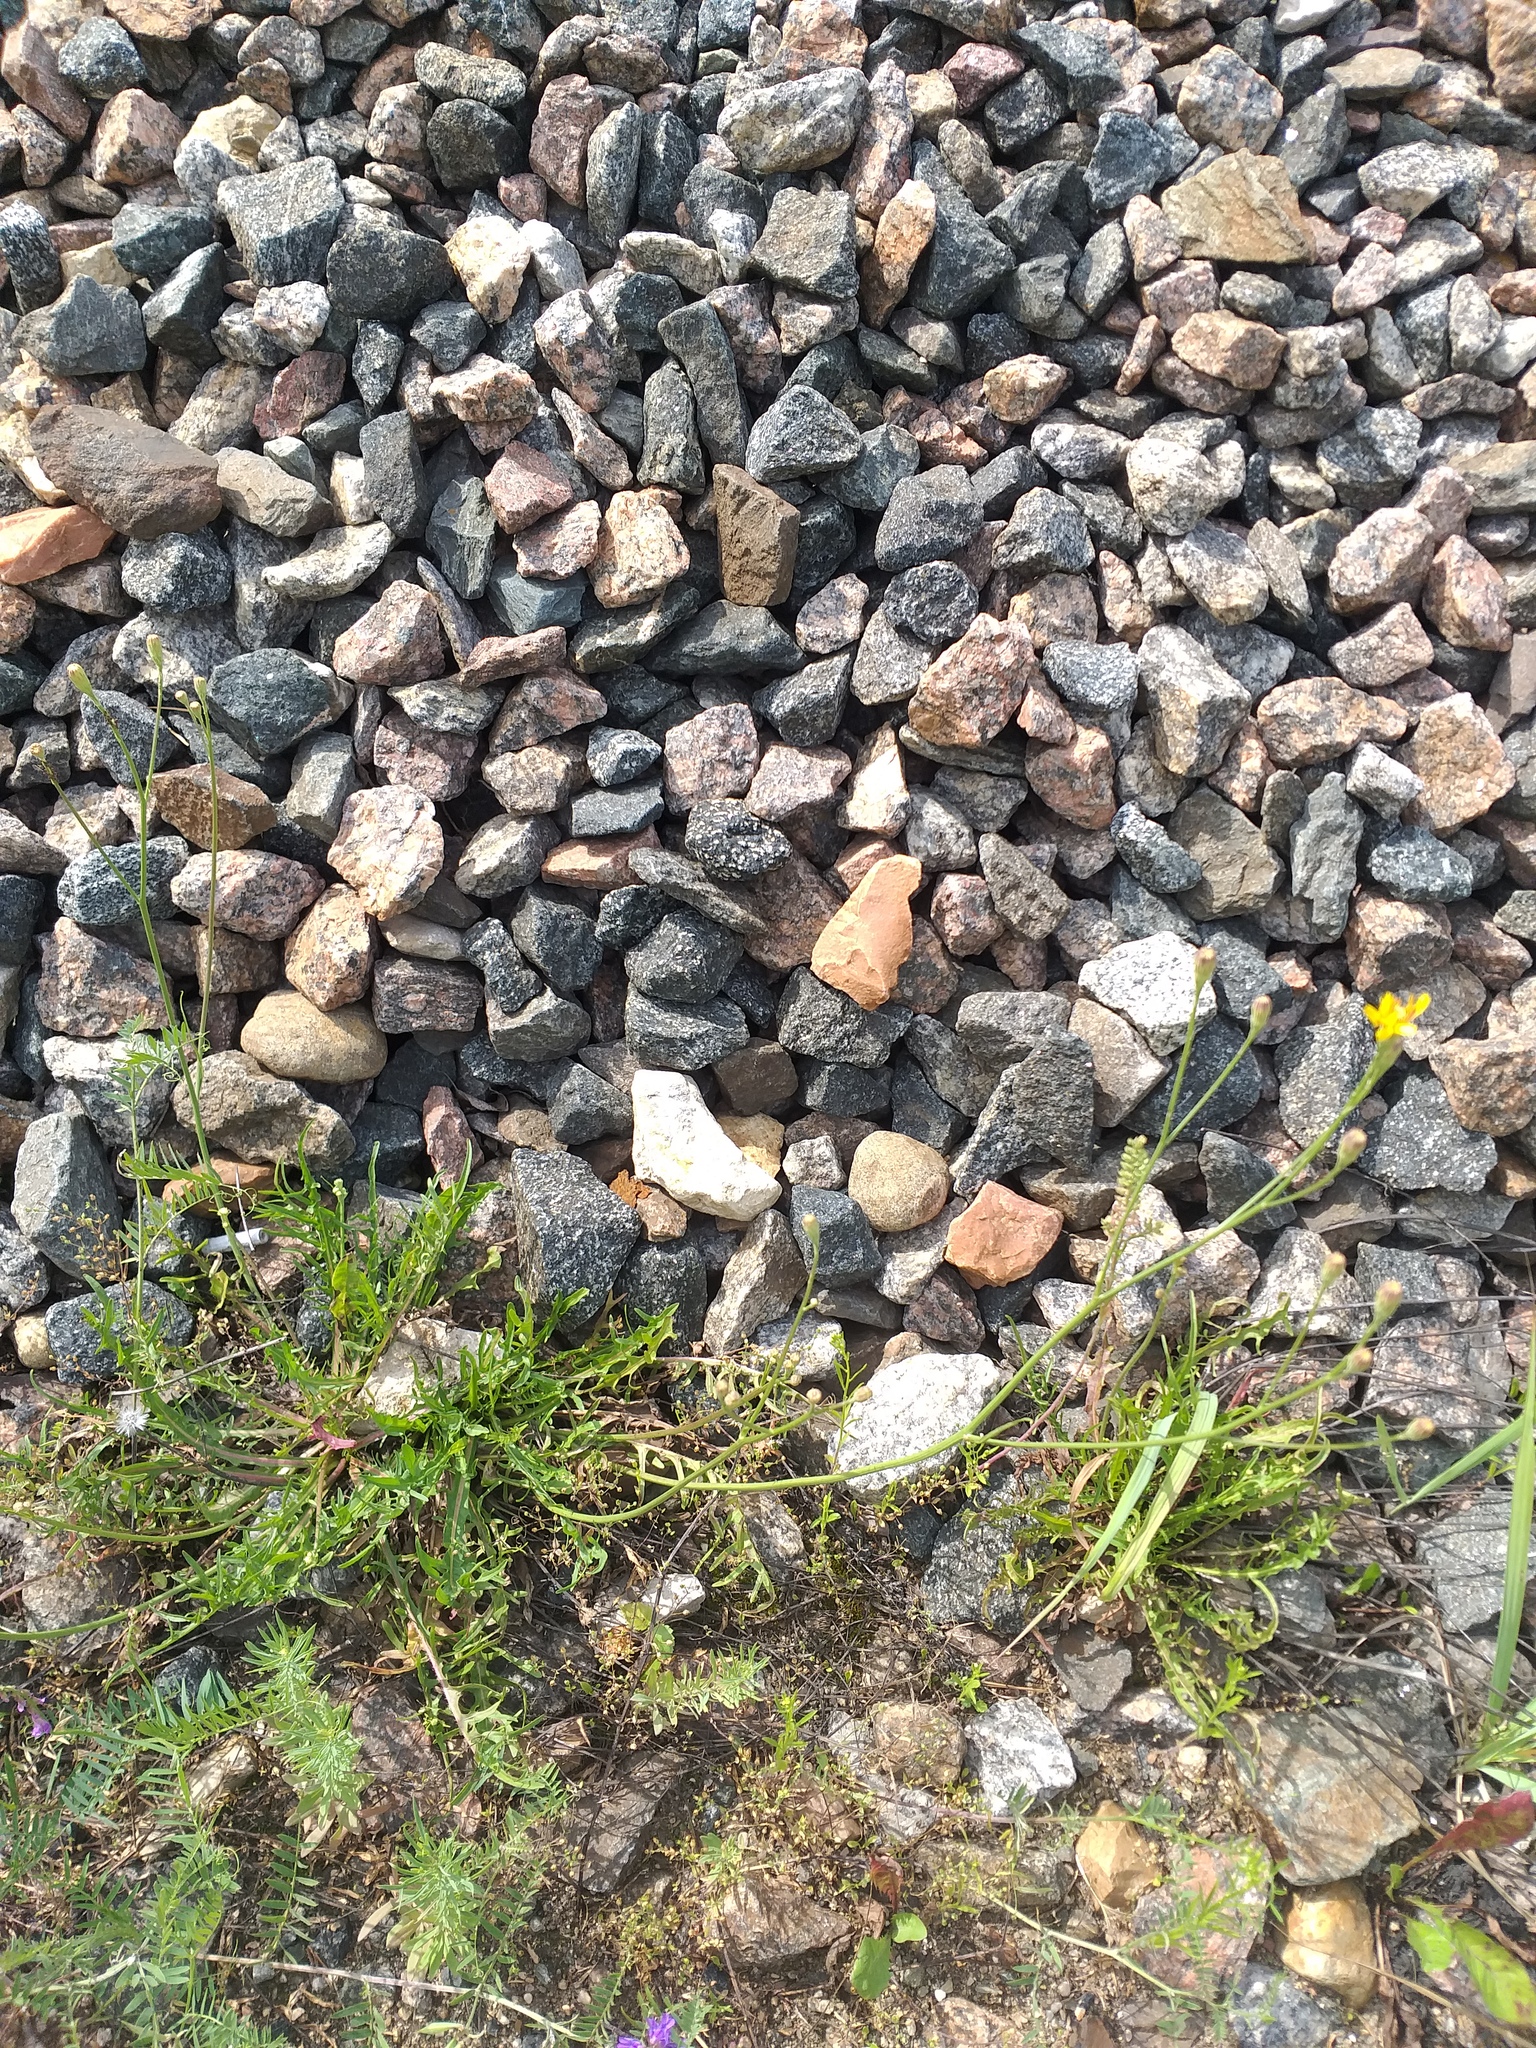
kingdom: Plantae
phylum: Tracheophyta
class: Magnoliopsida
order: Asterales
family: Asteraceae
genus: Scorzoneroides
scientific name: Scorzoneroides autumnalis
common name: Autumn hawkbit
